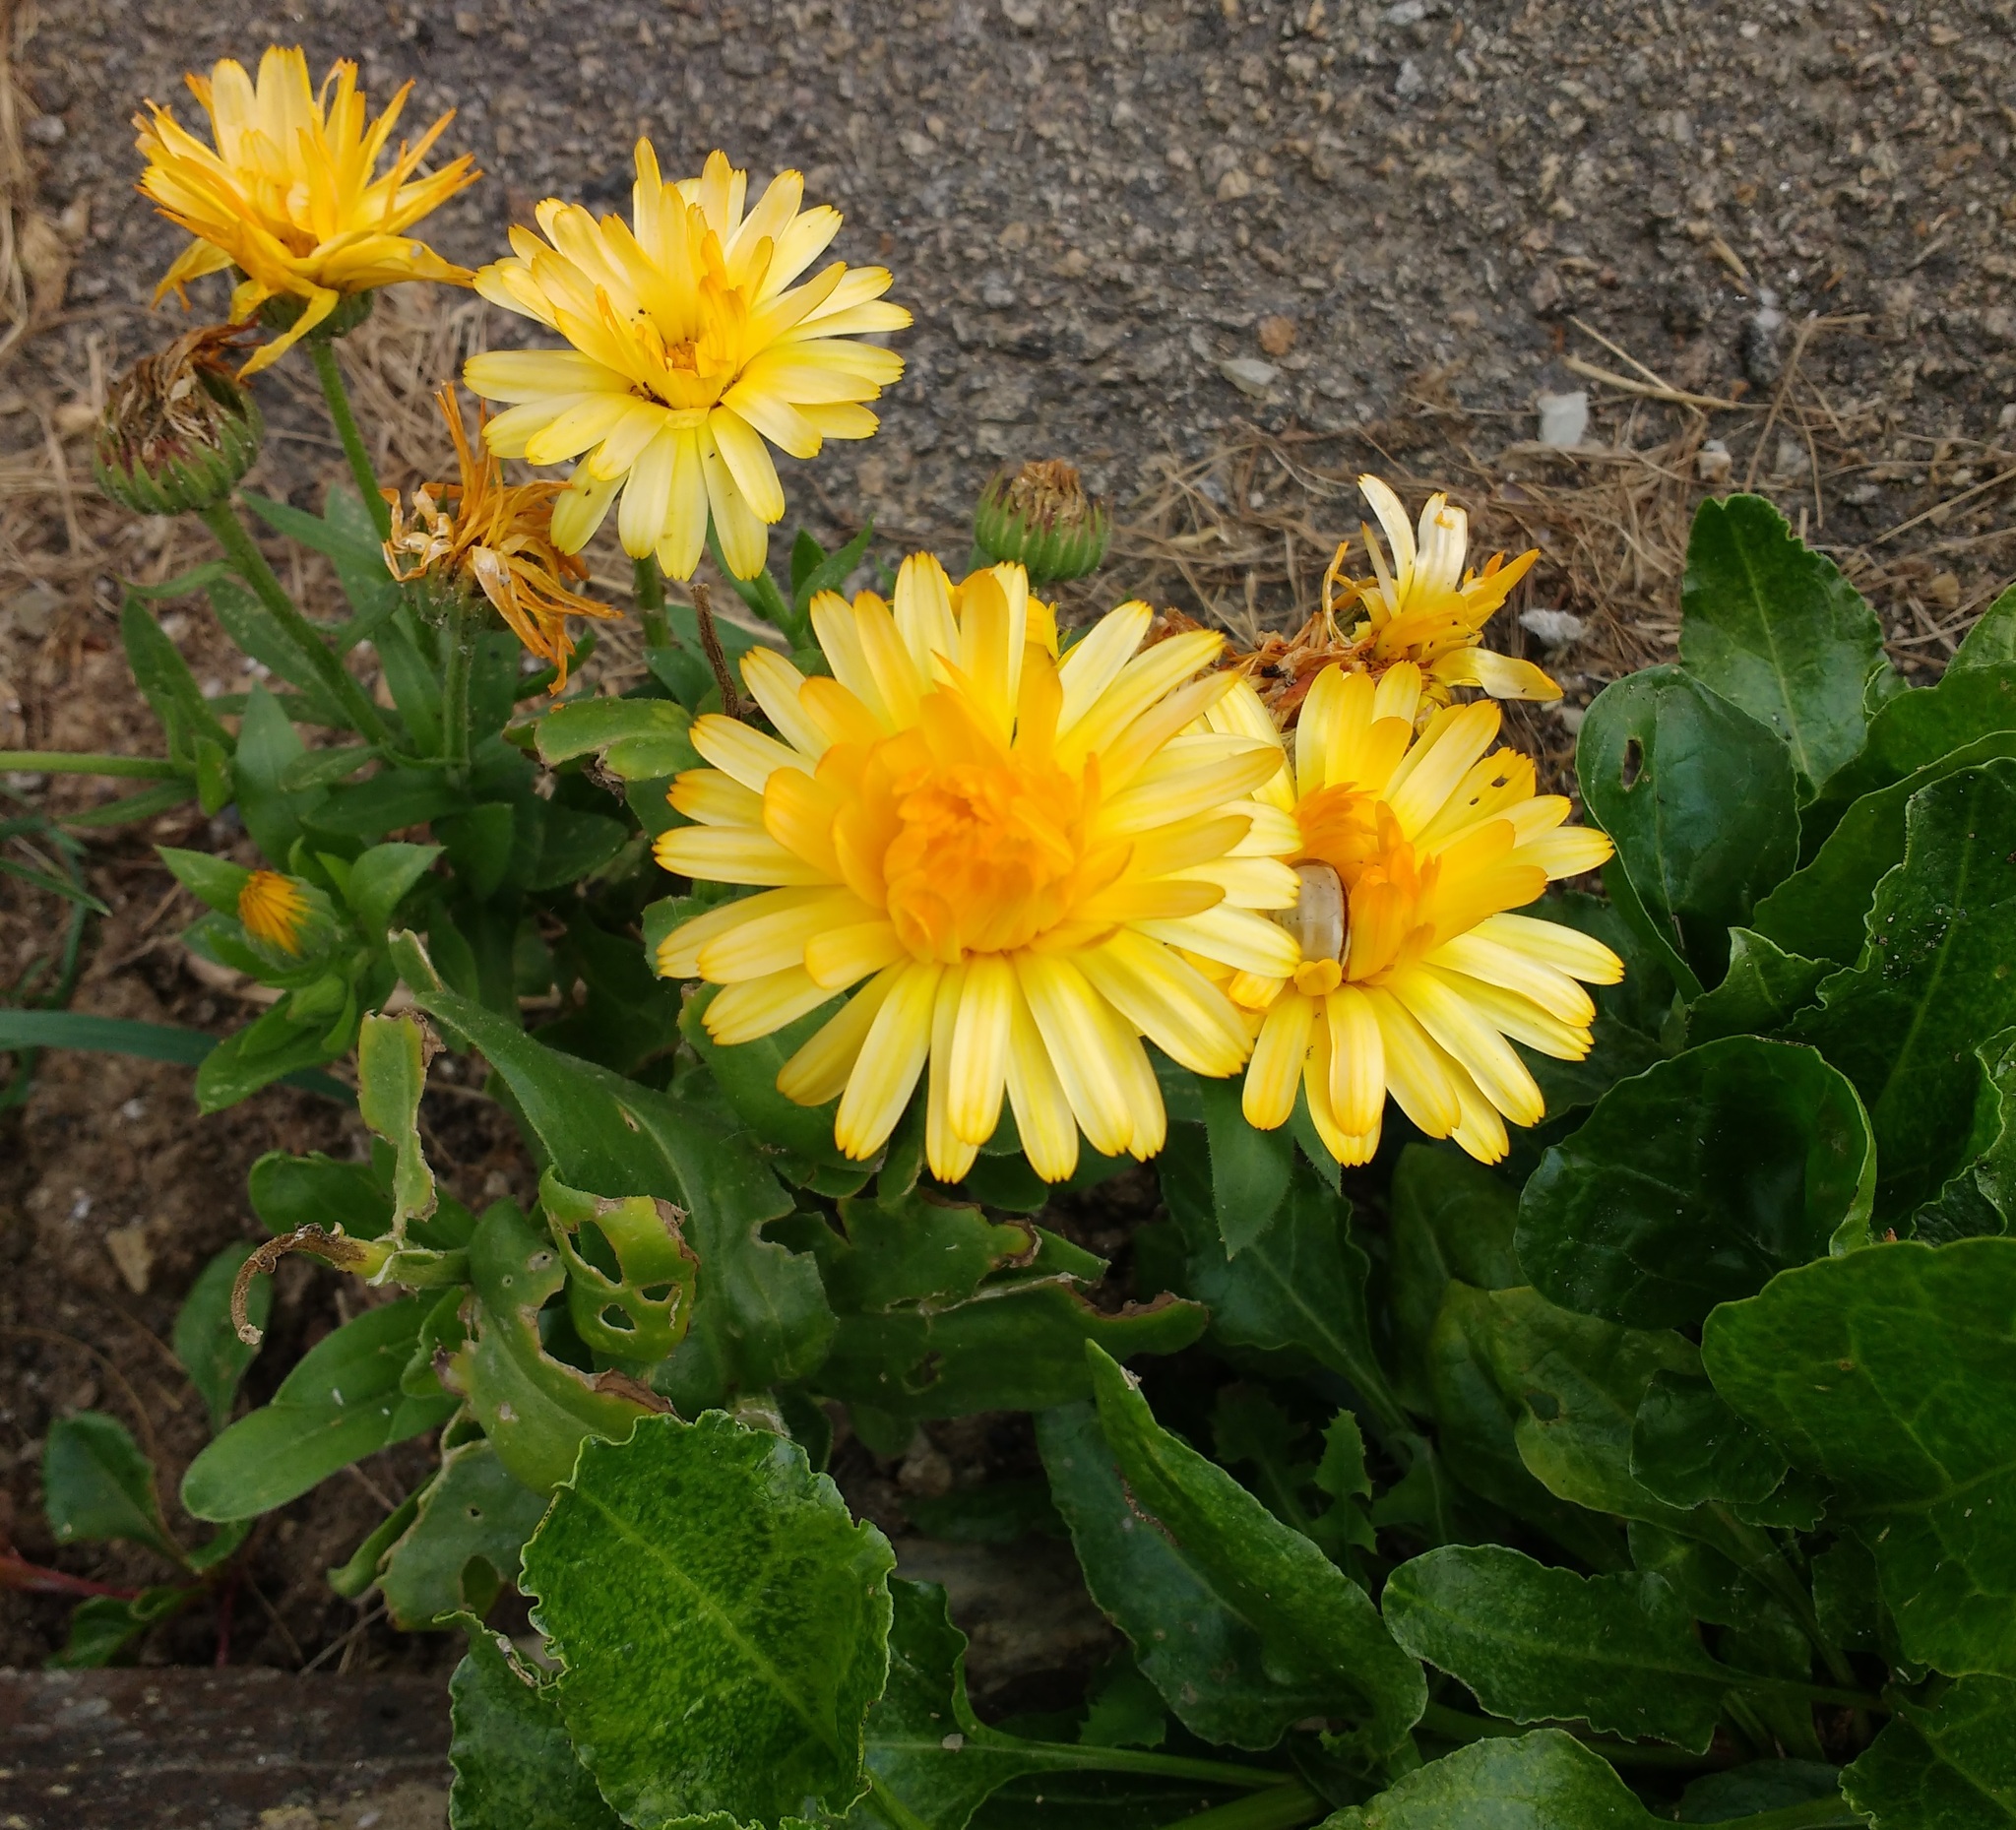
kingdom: Plantae
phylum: Tracheophyta
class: Magnoliopsida
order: Asterales
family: Asteraceae
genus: Calendula
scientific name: Calendula officinalis
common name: Pot marigold
